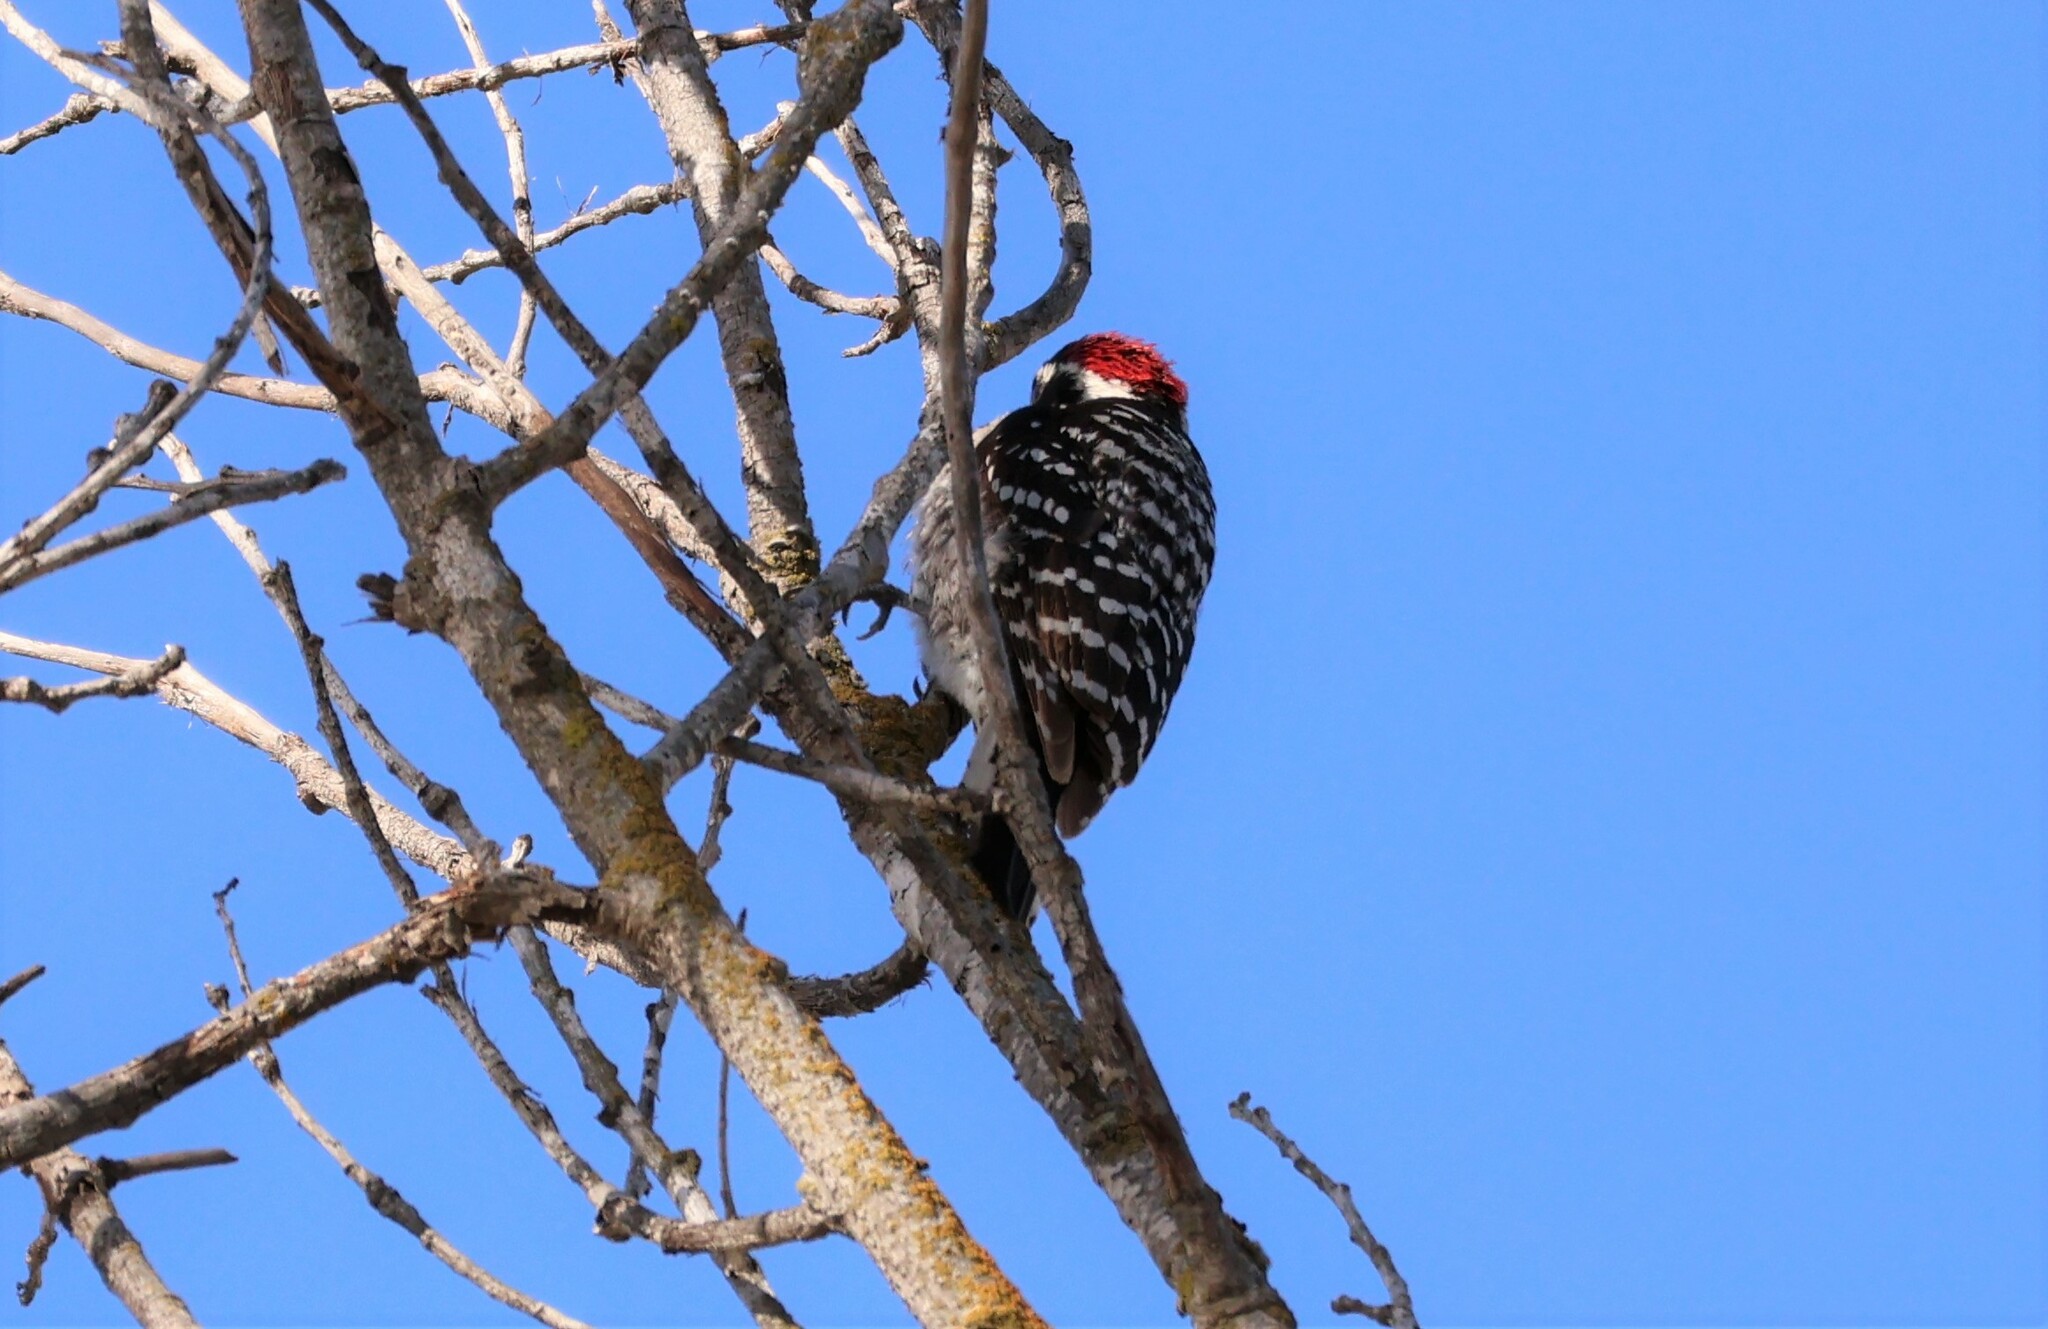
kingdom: Animalia
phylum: Chordata
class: Aves
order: Piciformes
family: Picidae
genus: Dryobates
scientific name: Dryobates nuttallii
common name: Nuttall's woodpecker
